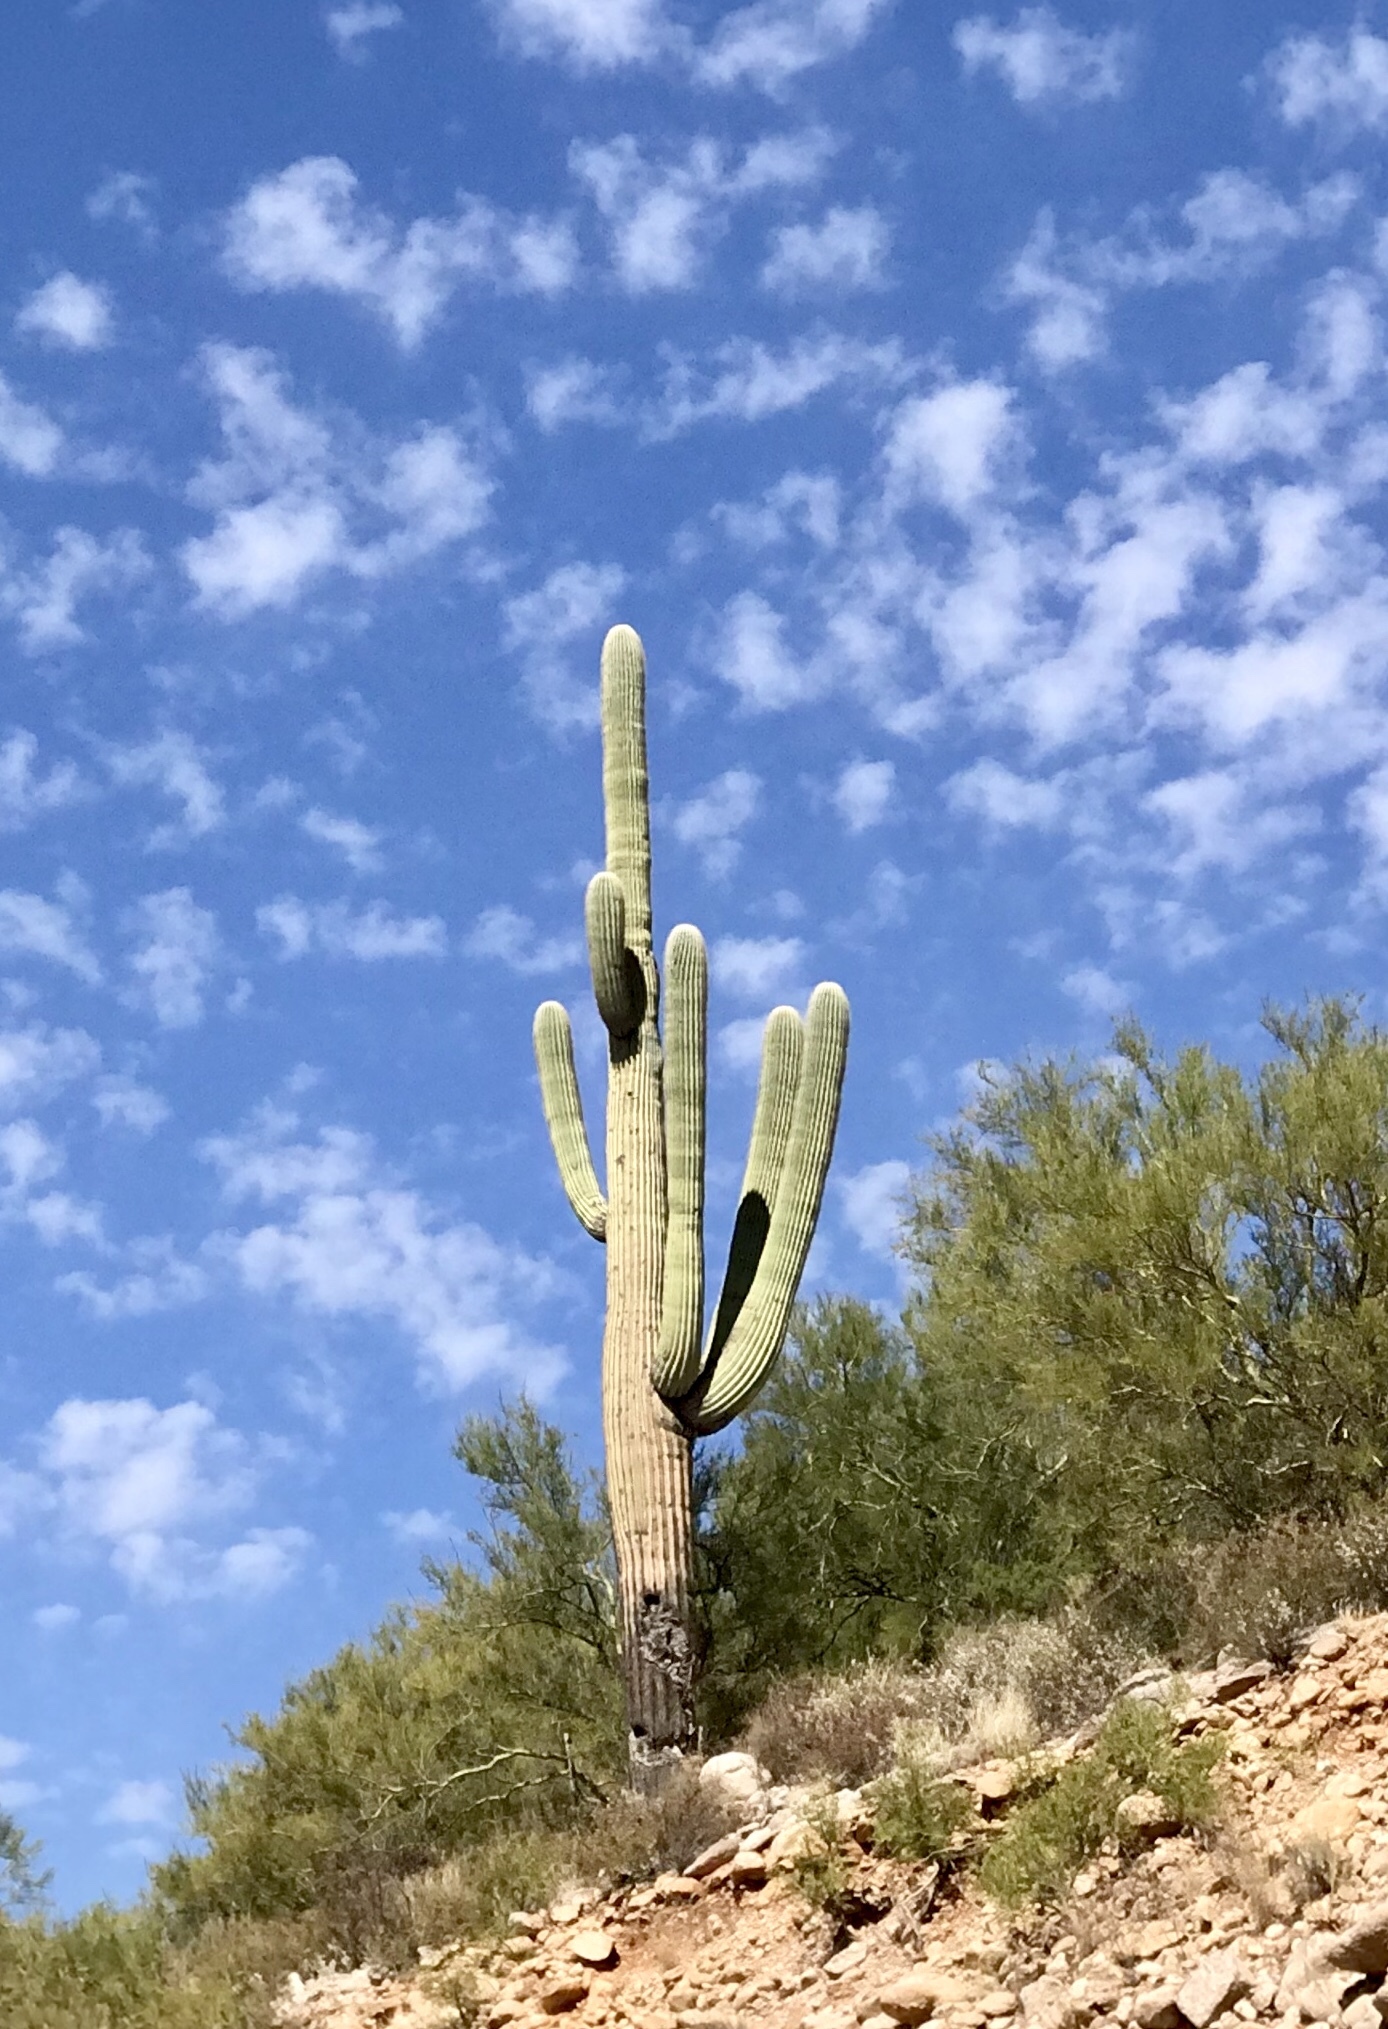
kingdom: Plantae
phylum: Tracheophyta
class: Magnoliopsida
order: Caryophyllales
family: Cactaceae
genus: Carnegiea
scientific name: Carnegiea gigantea
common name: Saguaro
